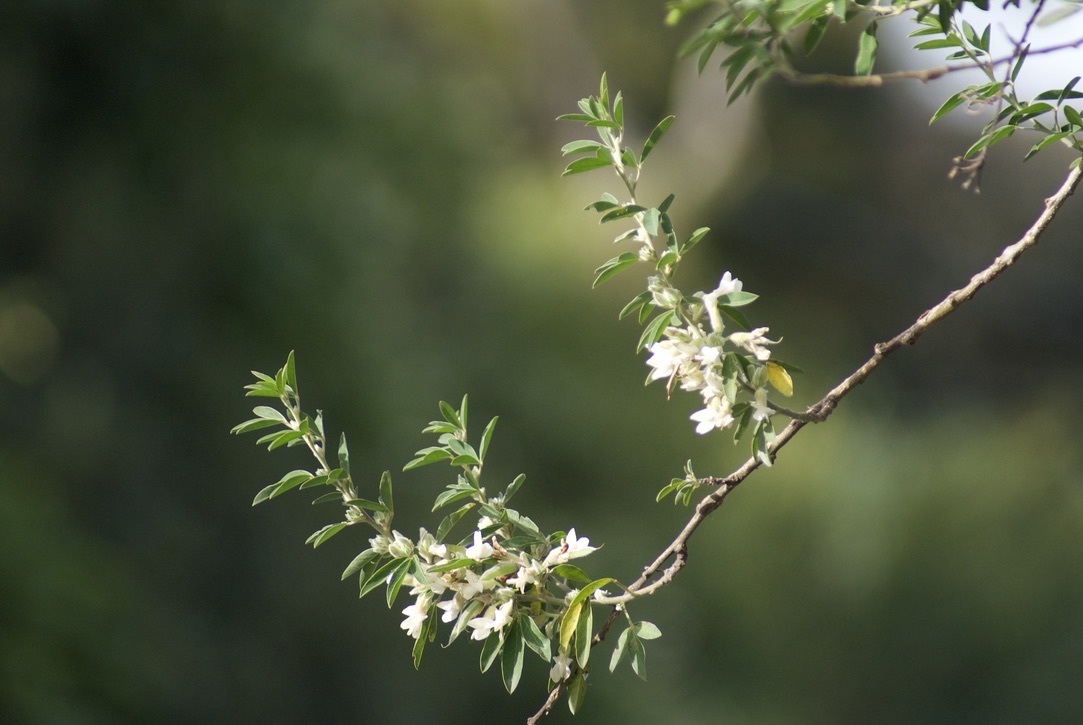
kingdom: Plantae
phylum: Tracheophyta
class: Magnoliopsida
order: Fabales
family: Fabaceae
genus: Chamaecytisus
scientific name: Chamaecytisus prolifer
